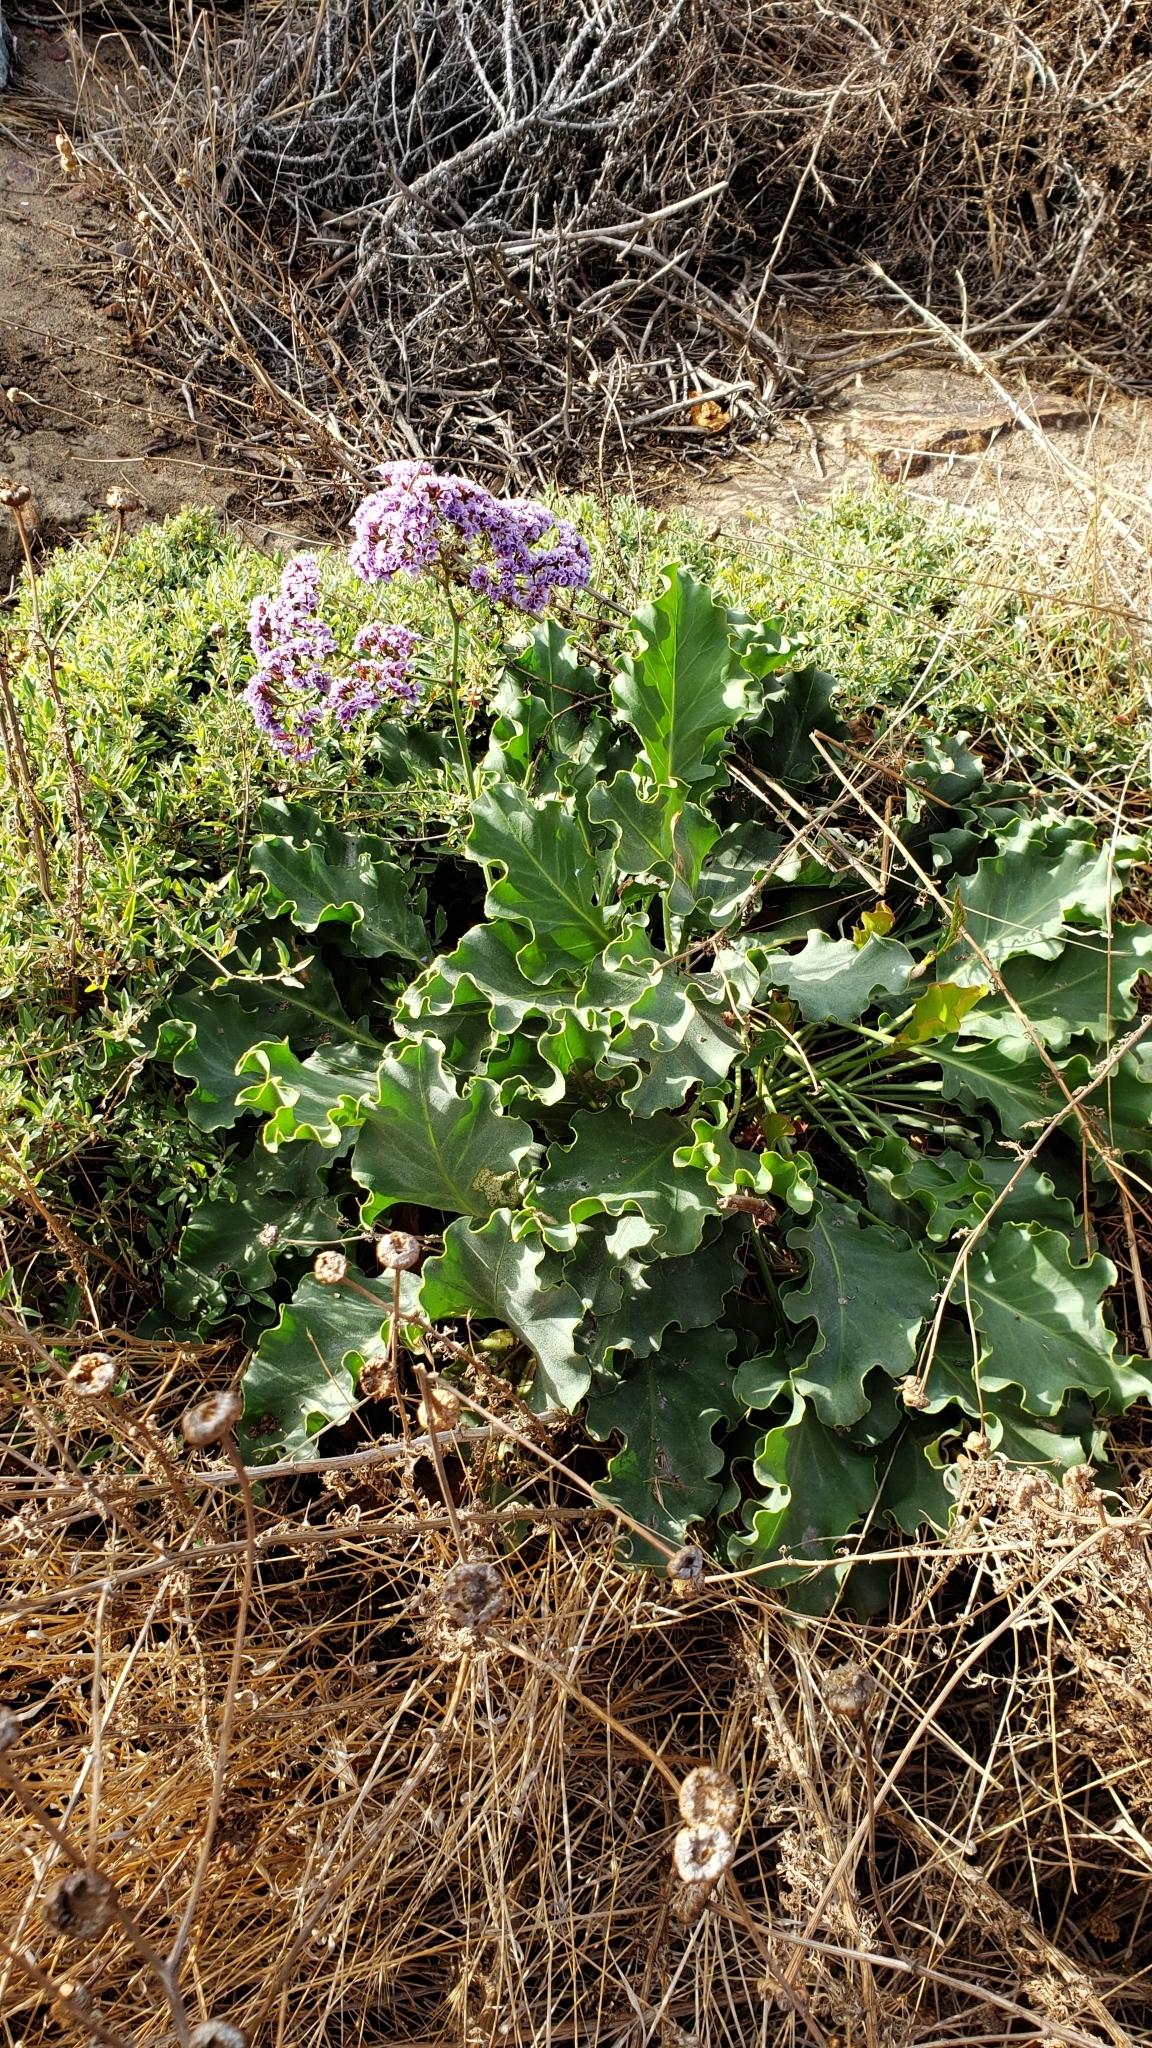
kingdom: Plantae
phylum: Tracheophyta
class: Magnoliopsida
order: Caryophyllales
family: Plumbaginaceae
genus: Limonium
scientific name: Limonium perezii
